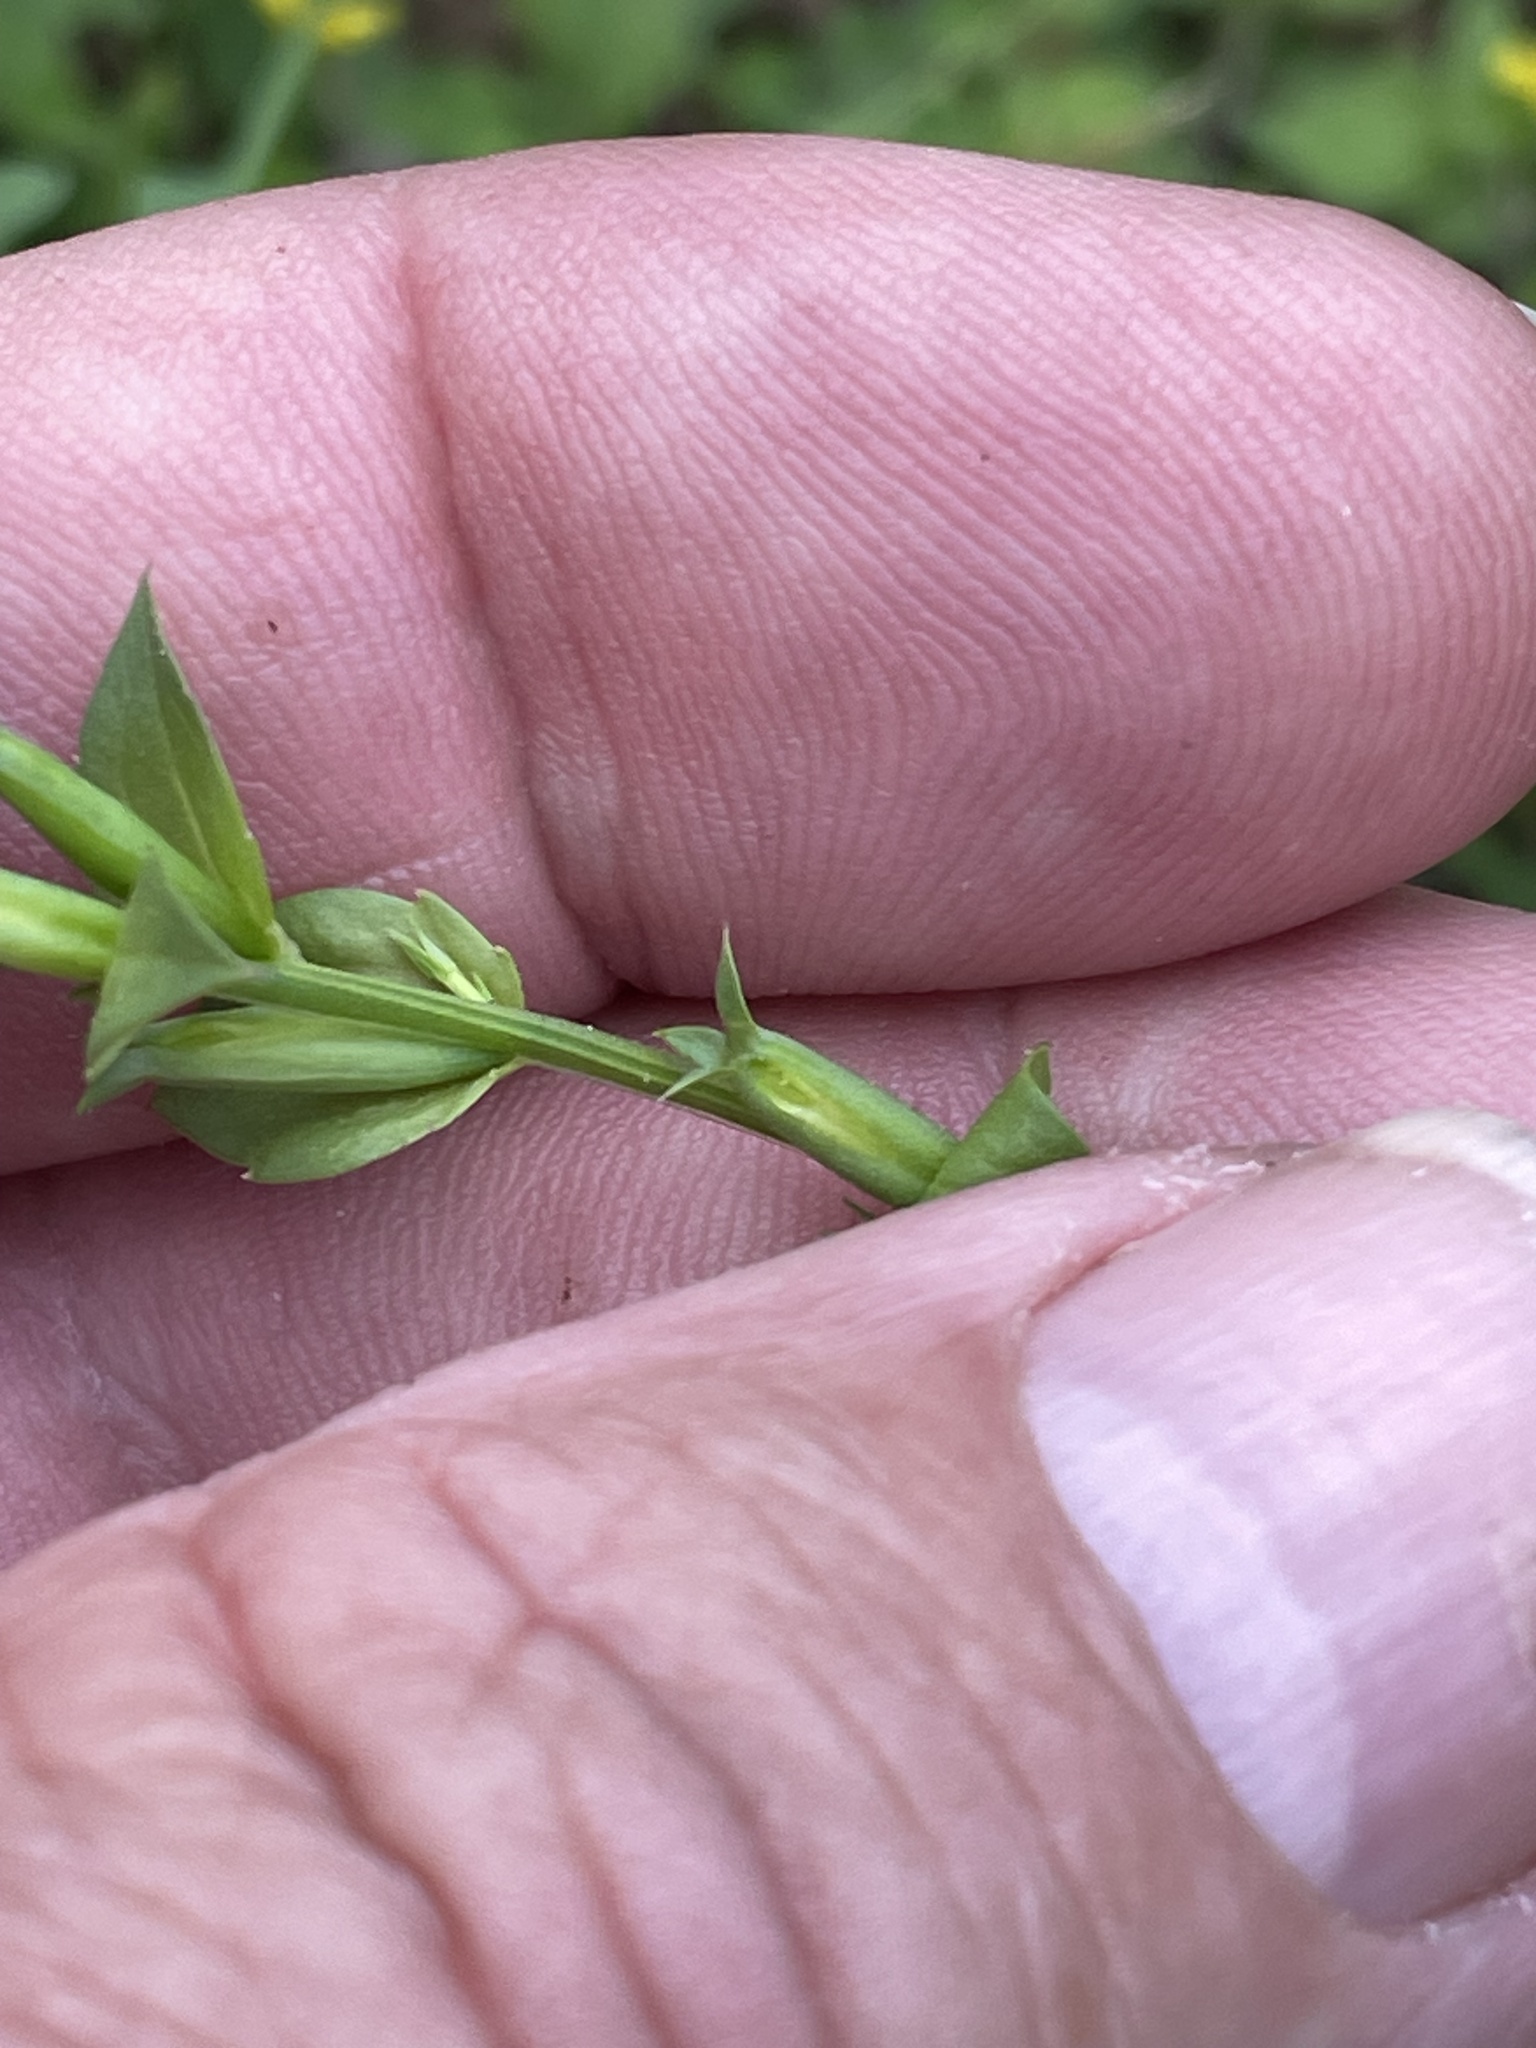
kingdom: Plantae
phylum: Tracheophyta
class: Magnoliopsida
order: Asterales
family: Campanulaceae
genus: Triodanis
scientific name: Triodanis biflora
